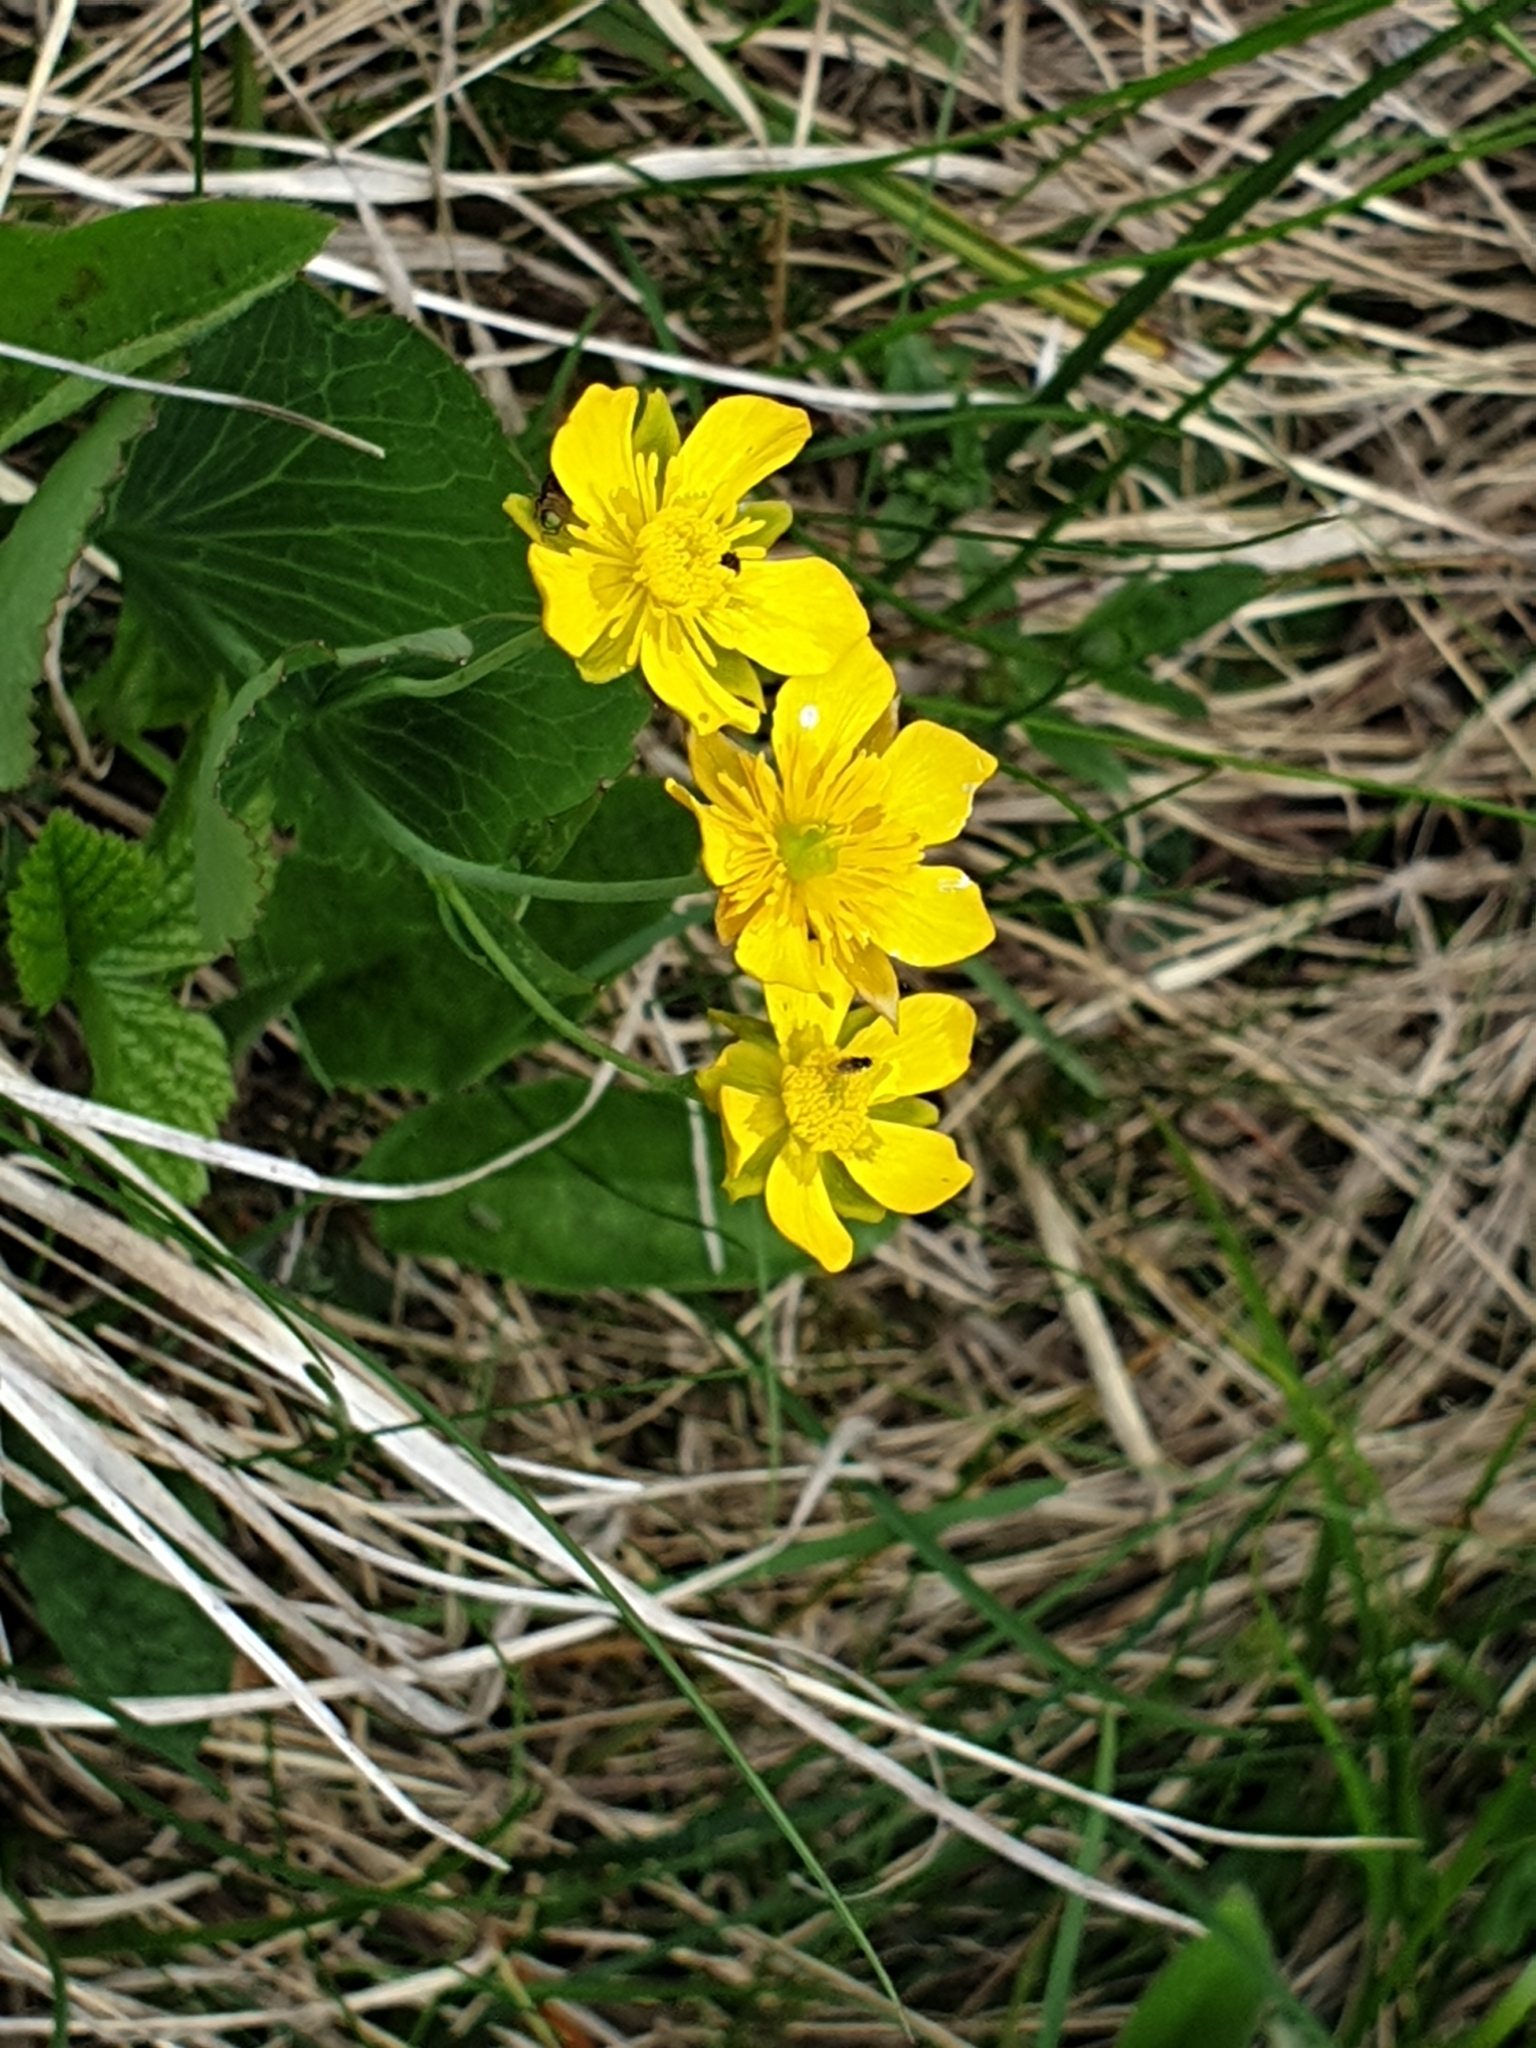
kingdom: Plantae
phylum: Tracheophyta
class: Magnoliopsida
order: Ranunculales
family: Ranunculaceae
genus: Ranunculus
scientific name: Ranunculus thora
